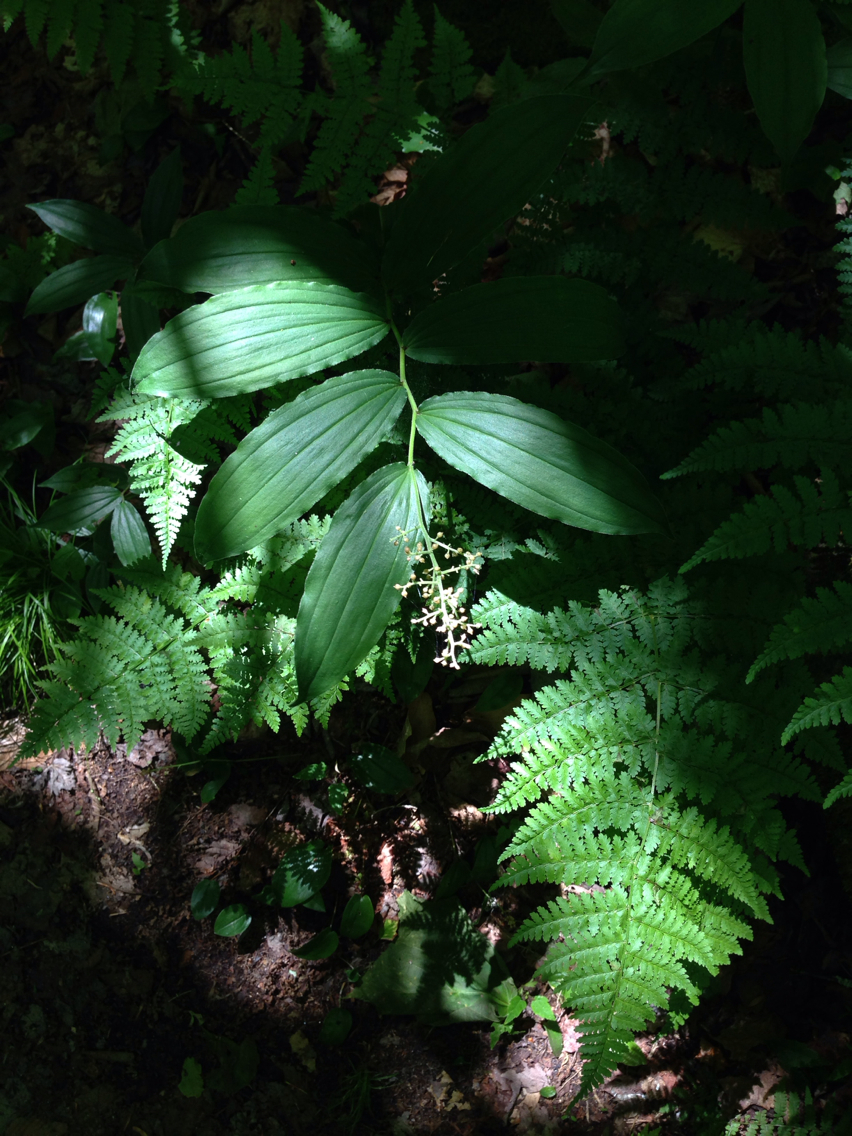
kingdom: Plantae
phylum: Tracheophyta
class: Liliopsida
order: Asparagales
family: Asparagaceae
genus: Maianthemum
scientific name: Maianthemum racemosum
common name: False spikenard
